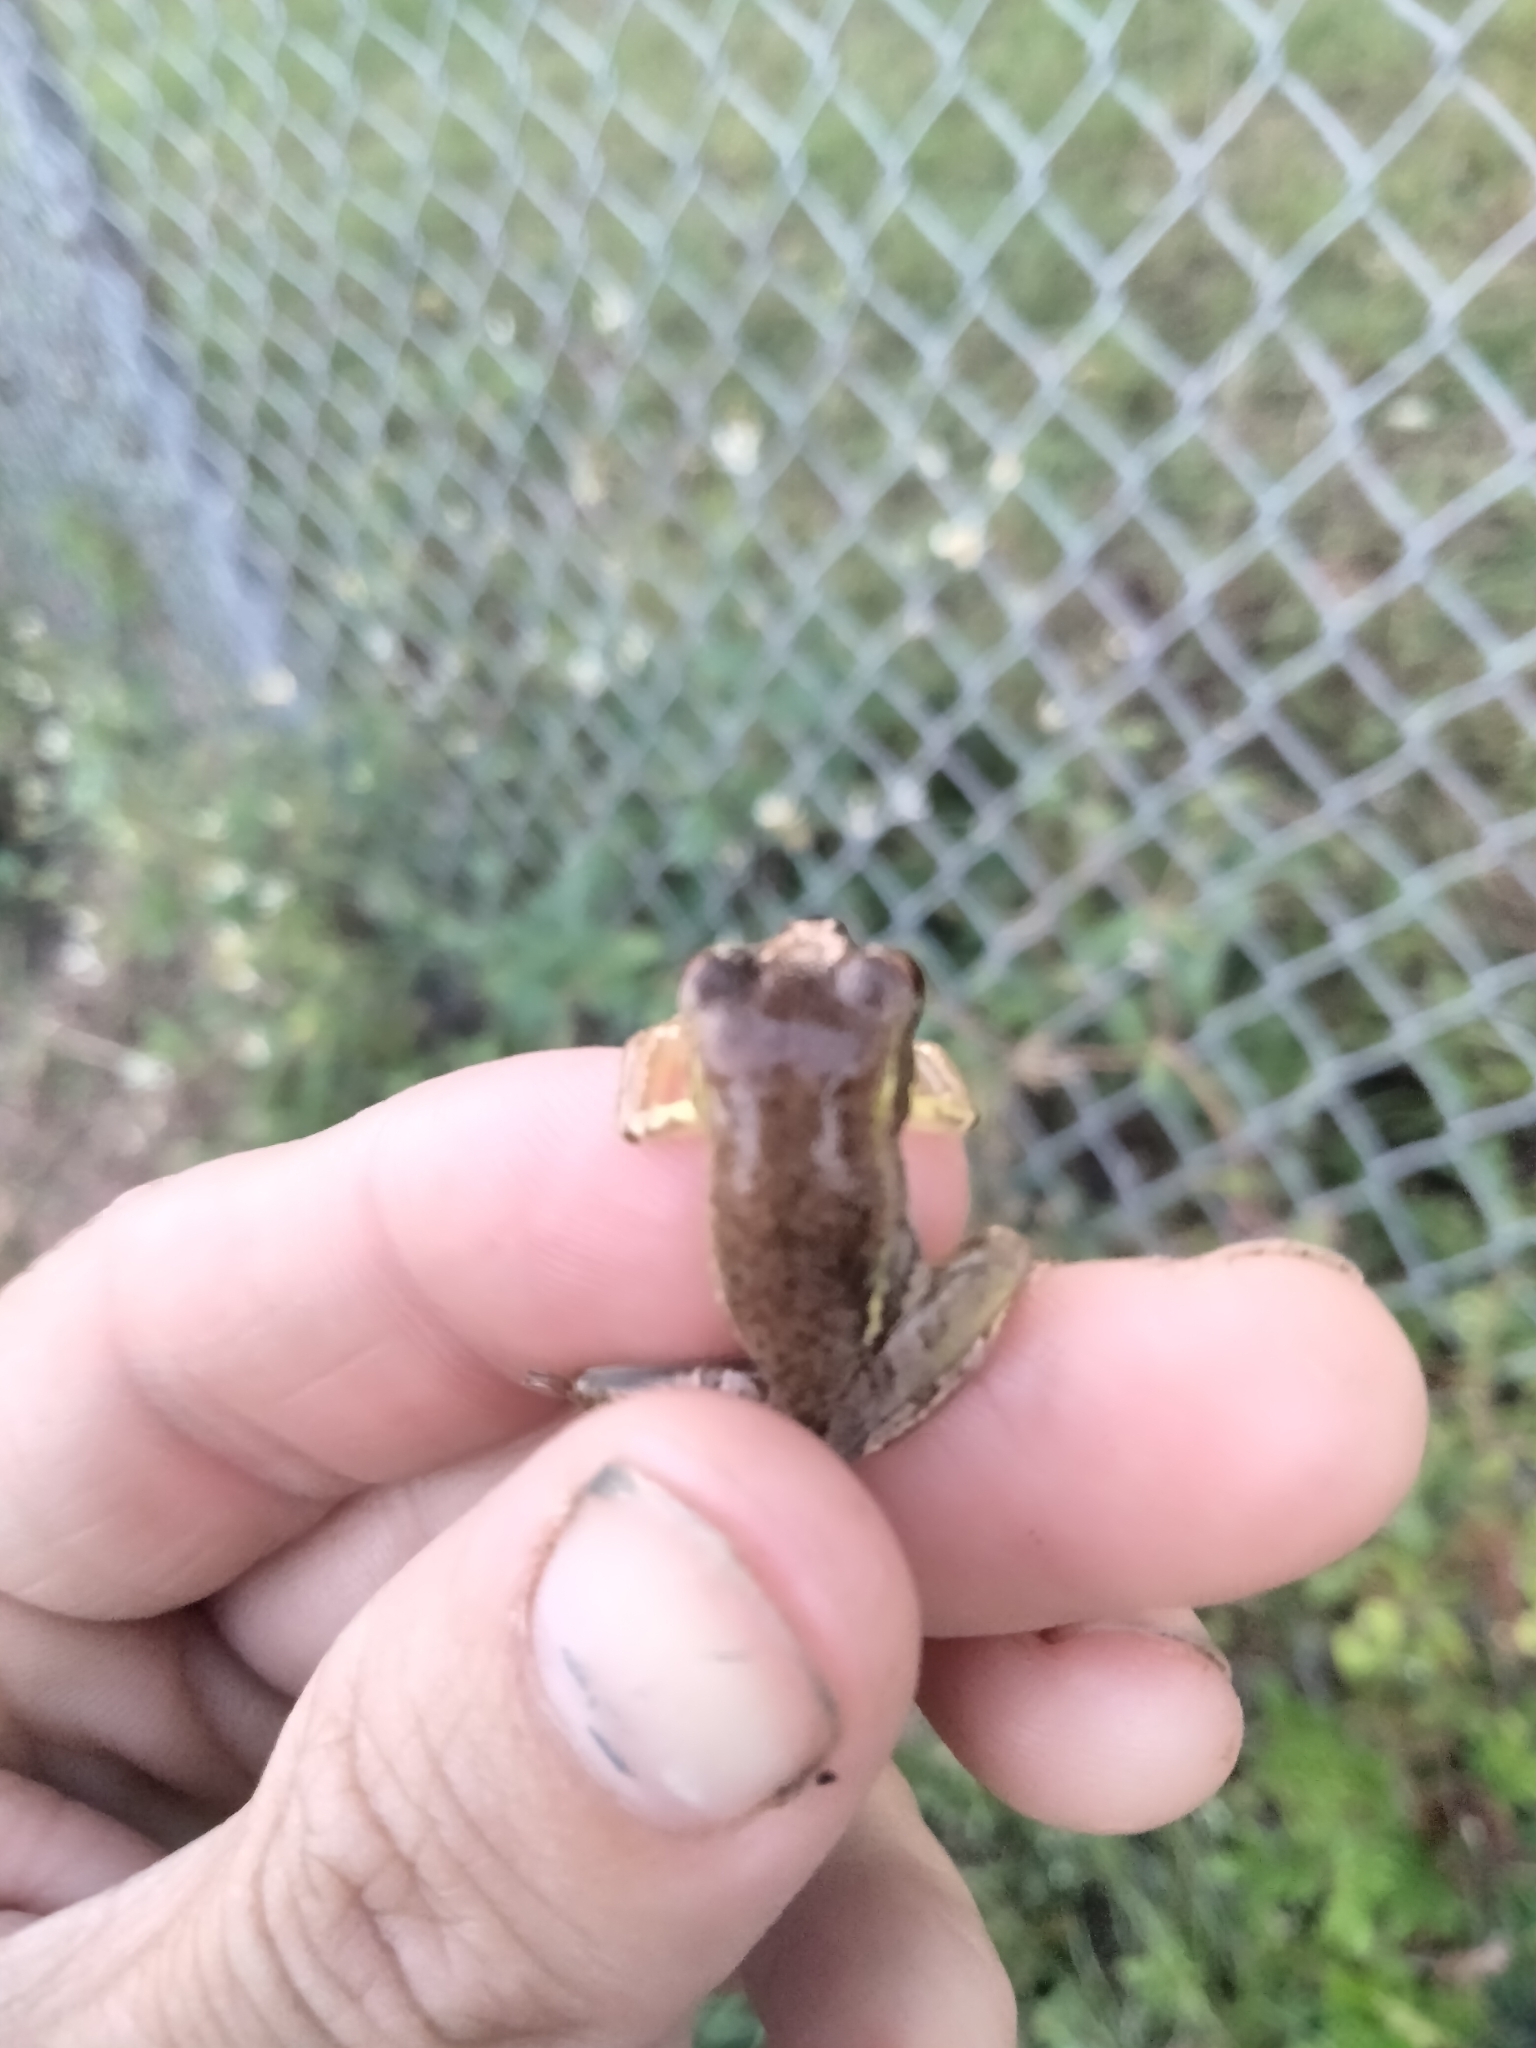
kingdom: Animalia
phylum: Chordata
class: Amphibia
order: Anura
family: Hylidae
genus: Osteopilus
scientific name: Osteopilus septentrionalis
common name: Cuban treefrog
